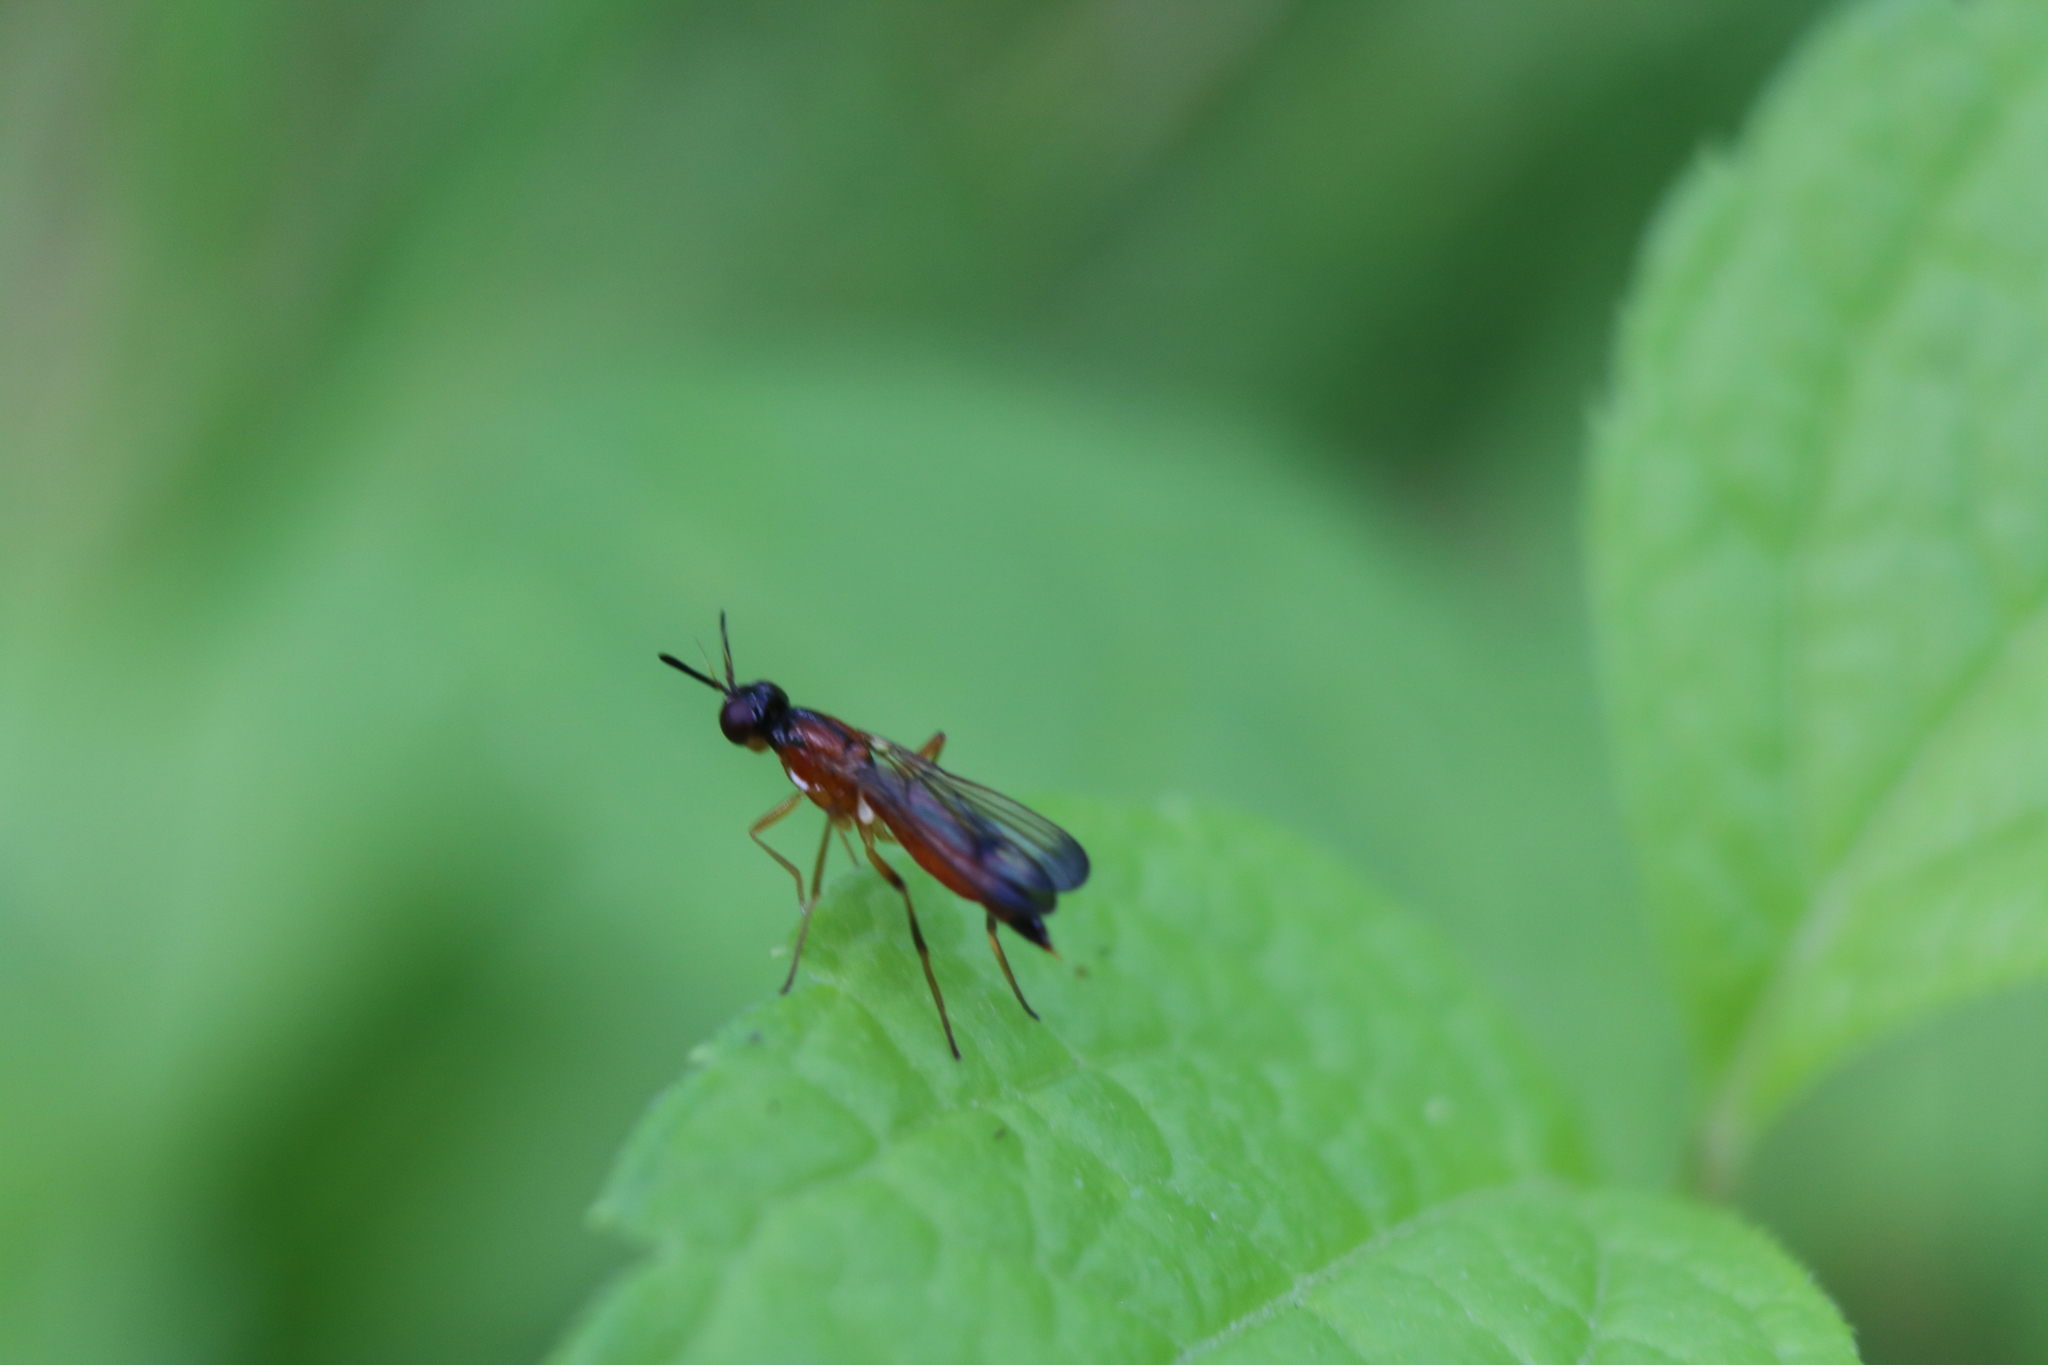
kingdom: Animalia
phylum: Arthropoda
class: Insecta
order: Diptera
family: Psilidae
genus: Loxocera
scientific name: Loxocera cylindrica
